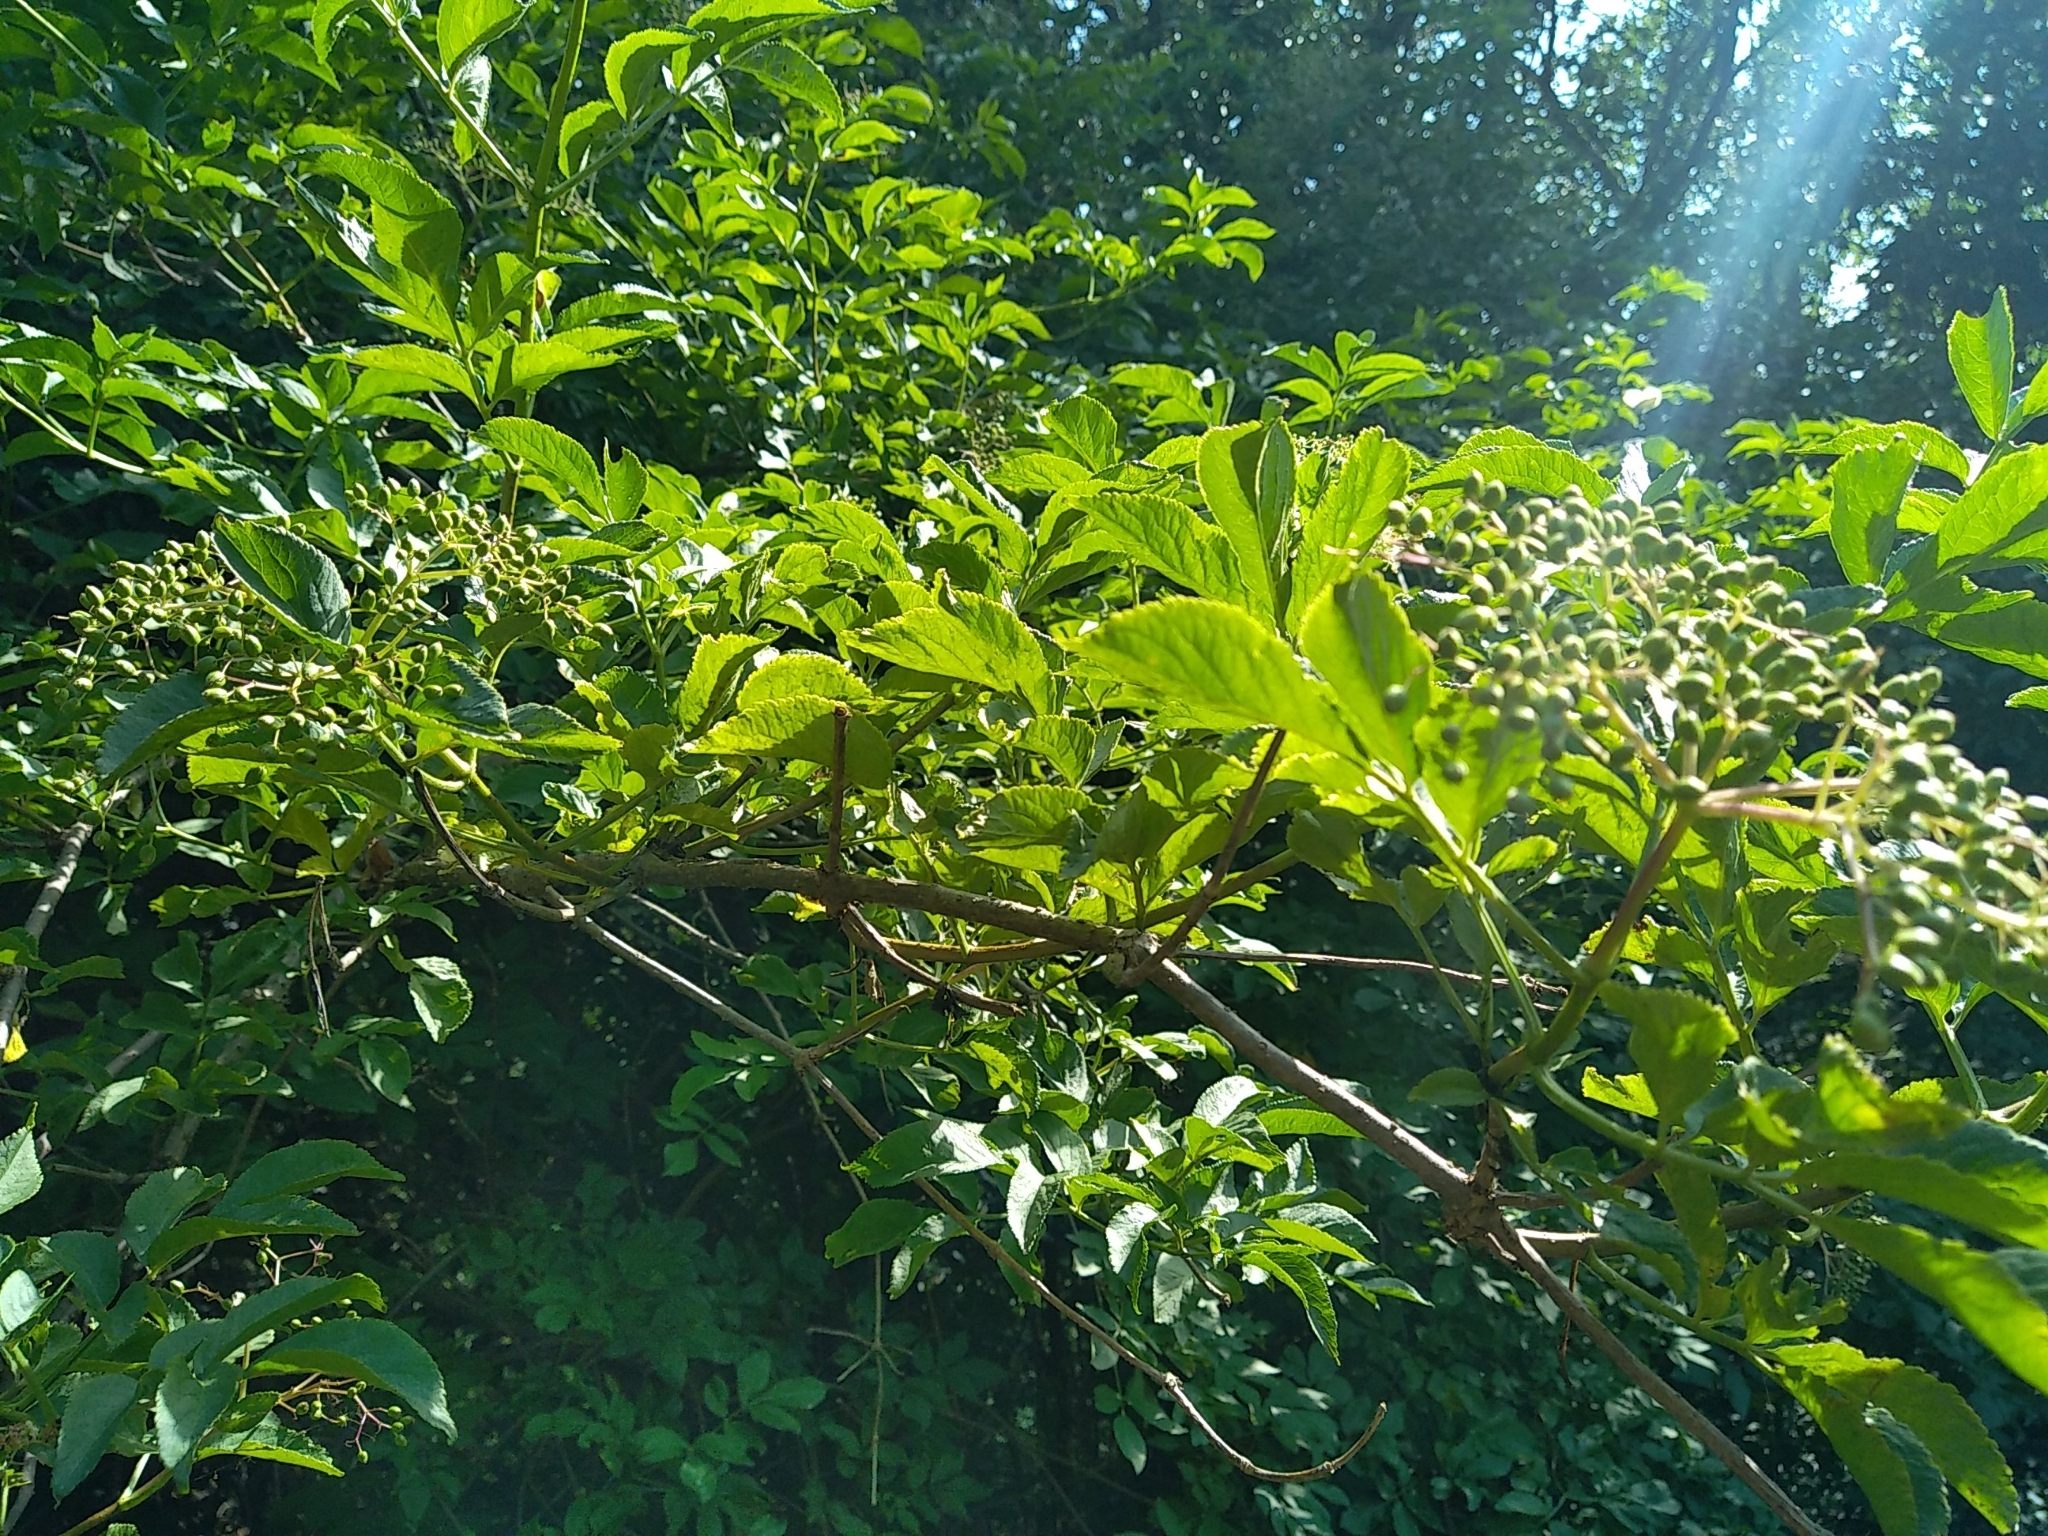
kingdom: Plantae
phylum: Tracheophyta
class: Magnoliopsida
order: Dipsacales
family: Viburnaceae
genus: Sambucus
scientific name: Sambucus nigra
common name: Elder
